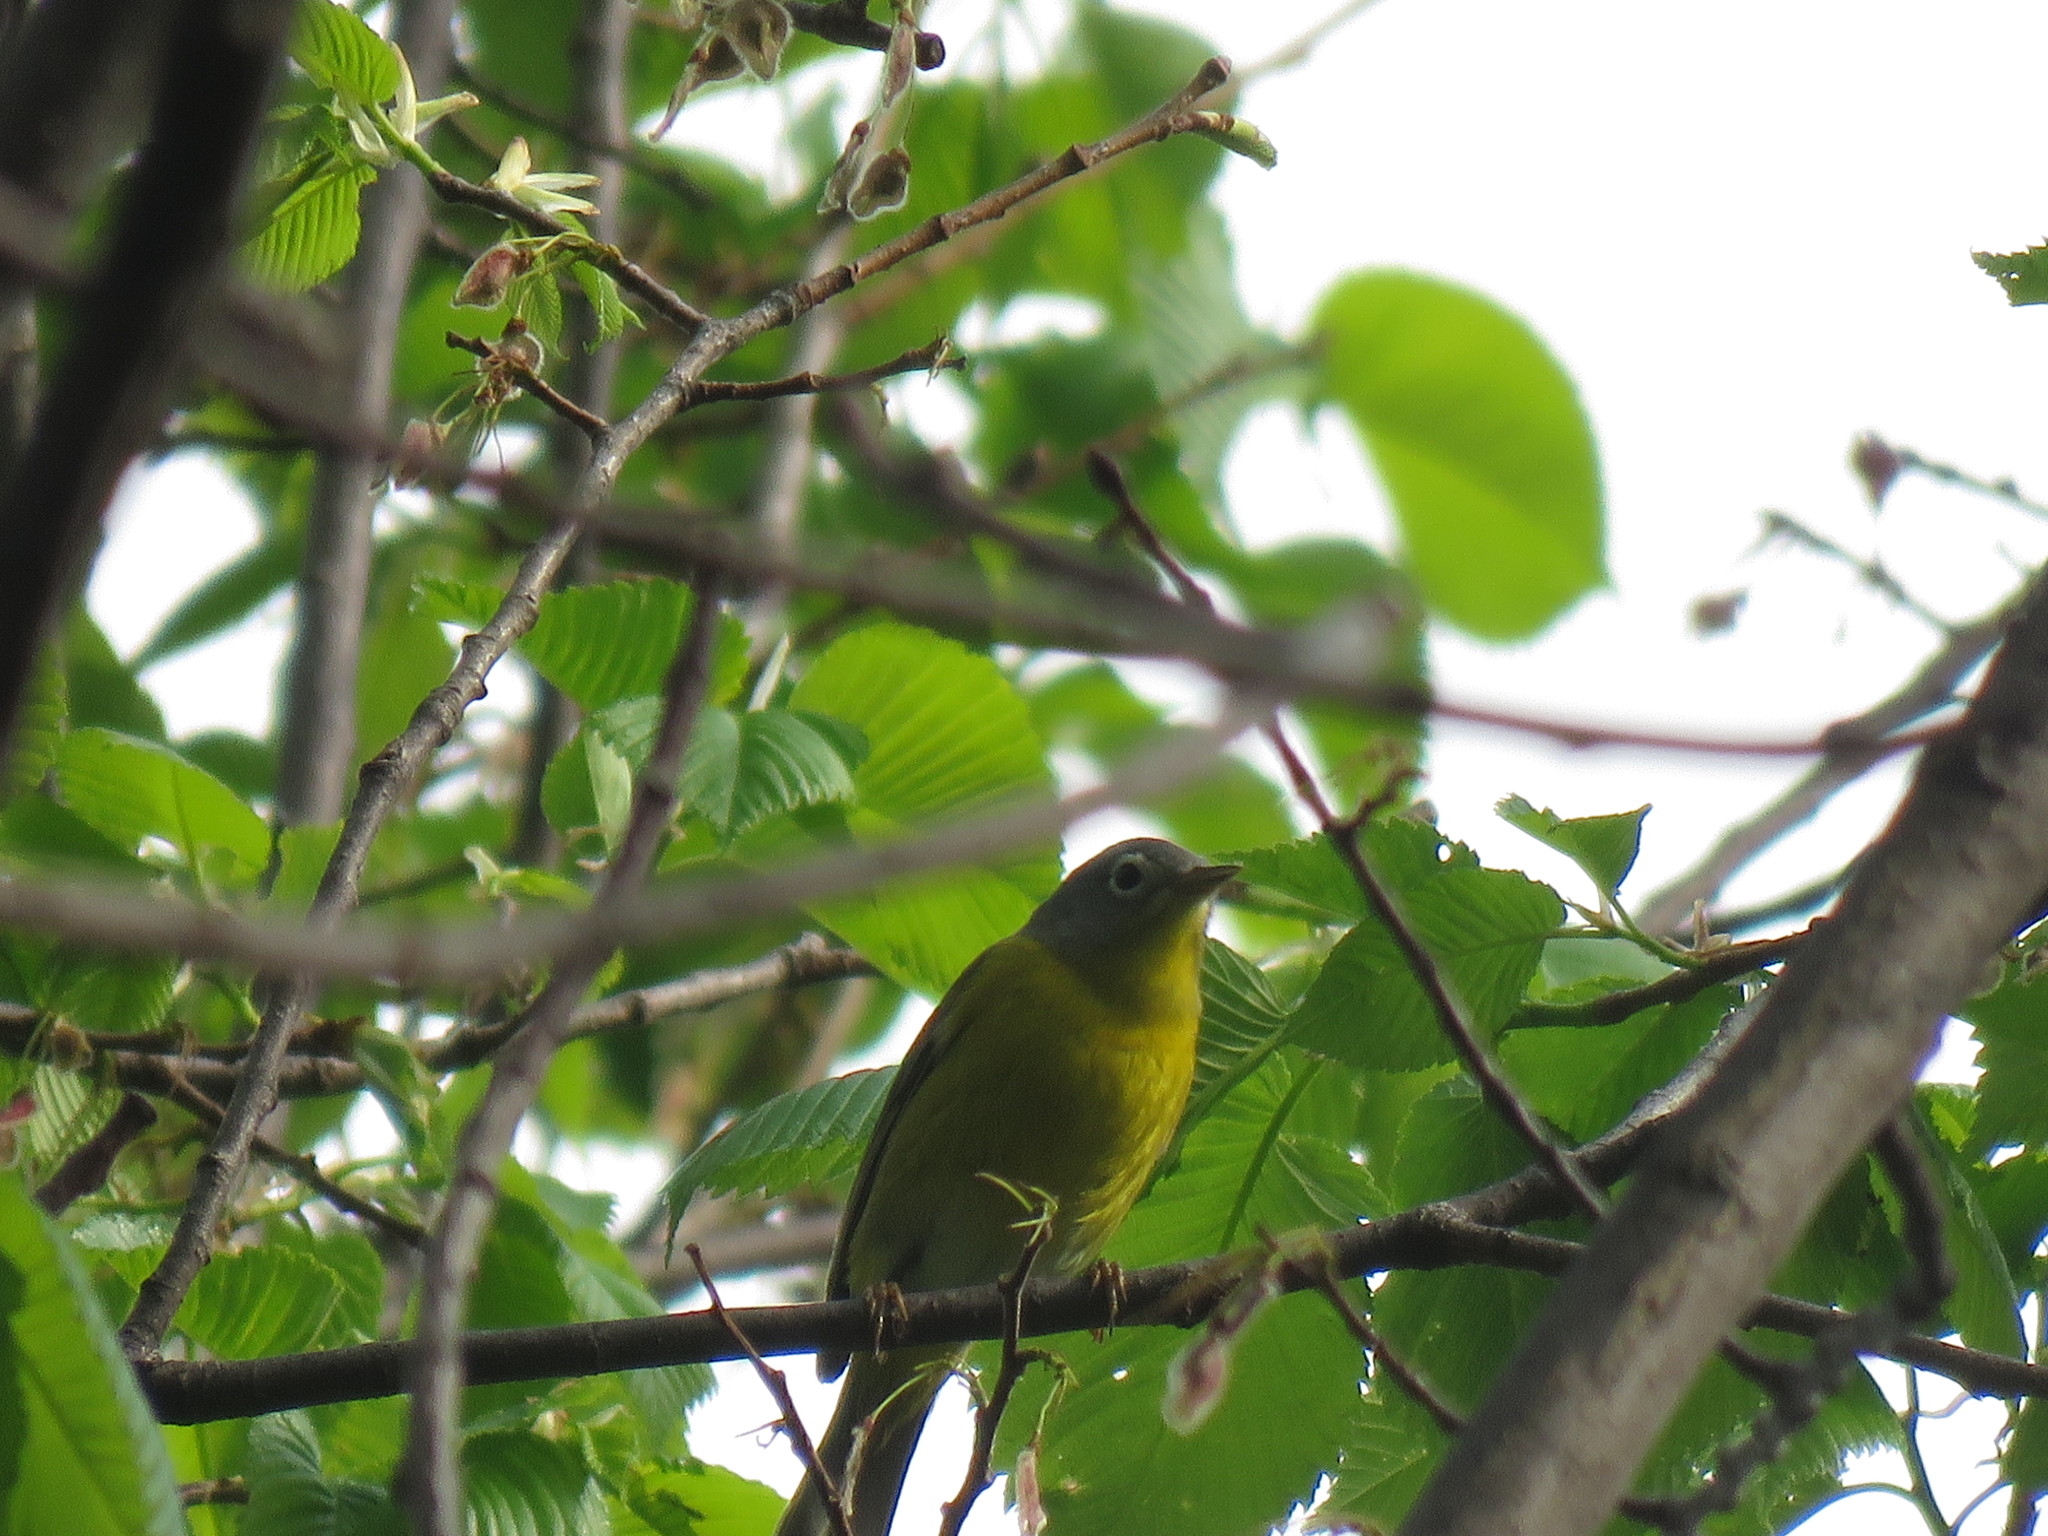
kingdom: Animalia
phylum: Chordata
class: Aves
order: Passeriformes
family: Parulidae
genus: Leiothlypis
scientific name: Leiothlypis ruficapilla
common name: Nashville warbler
